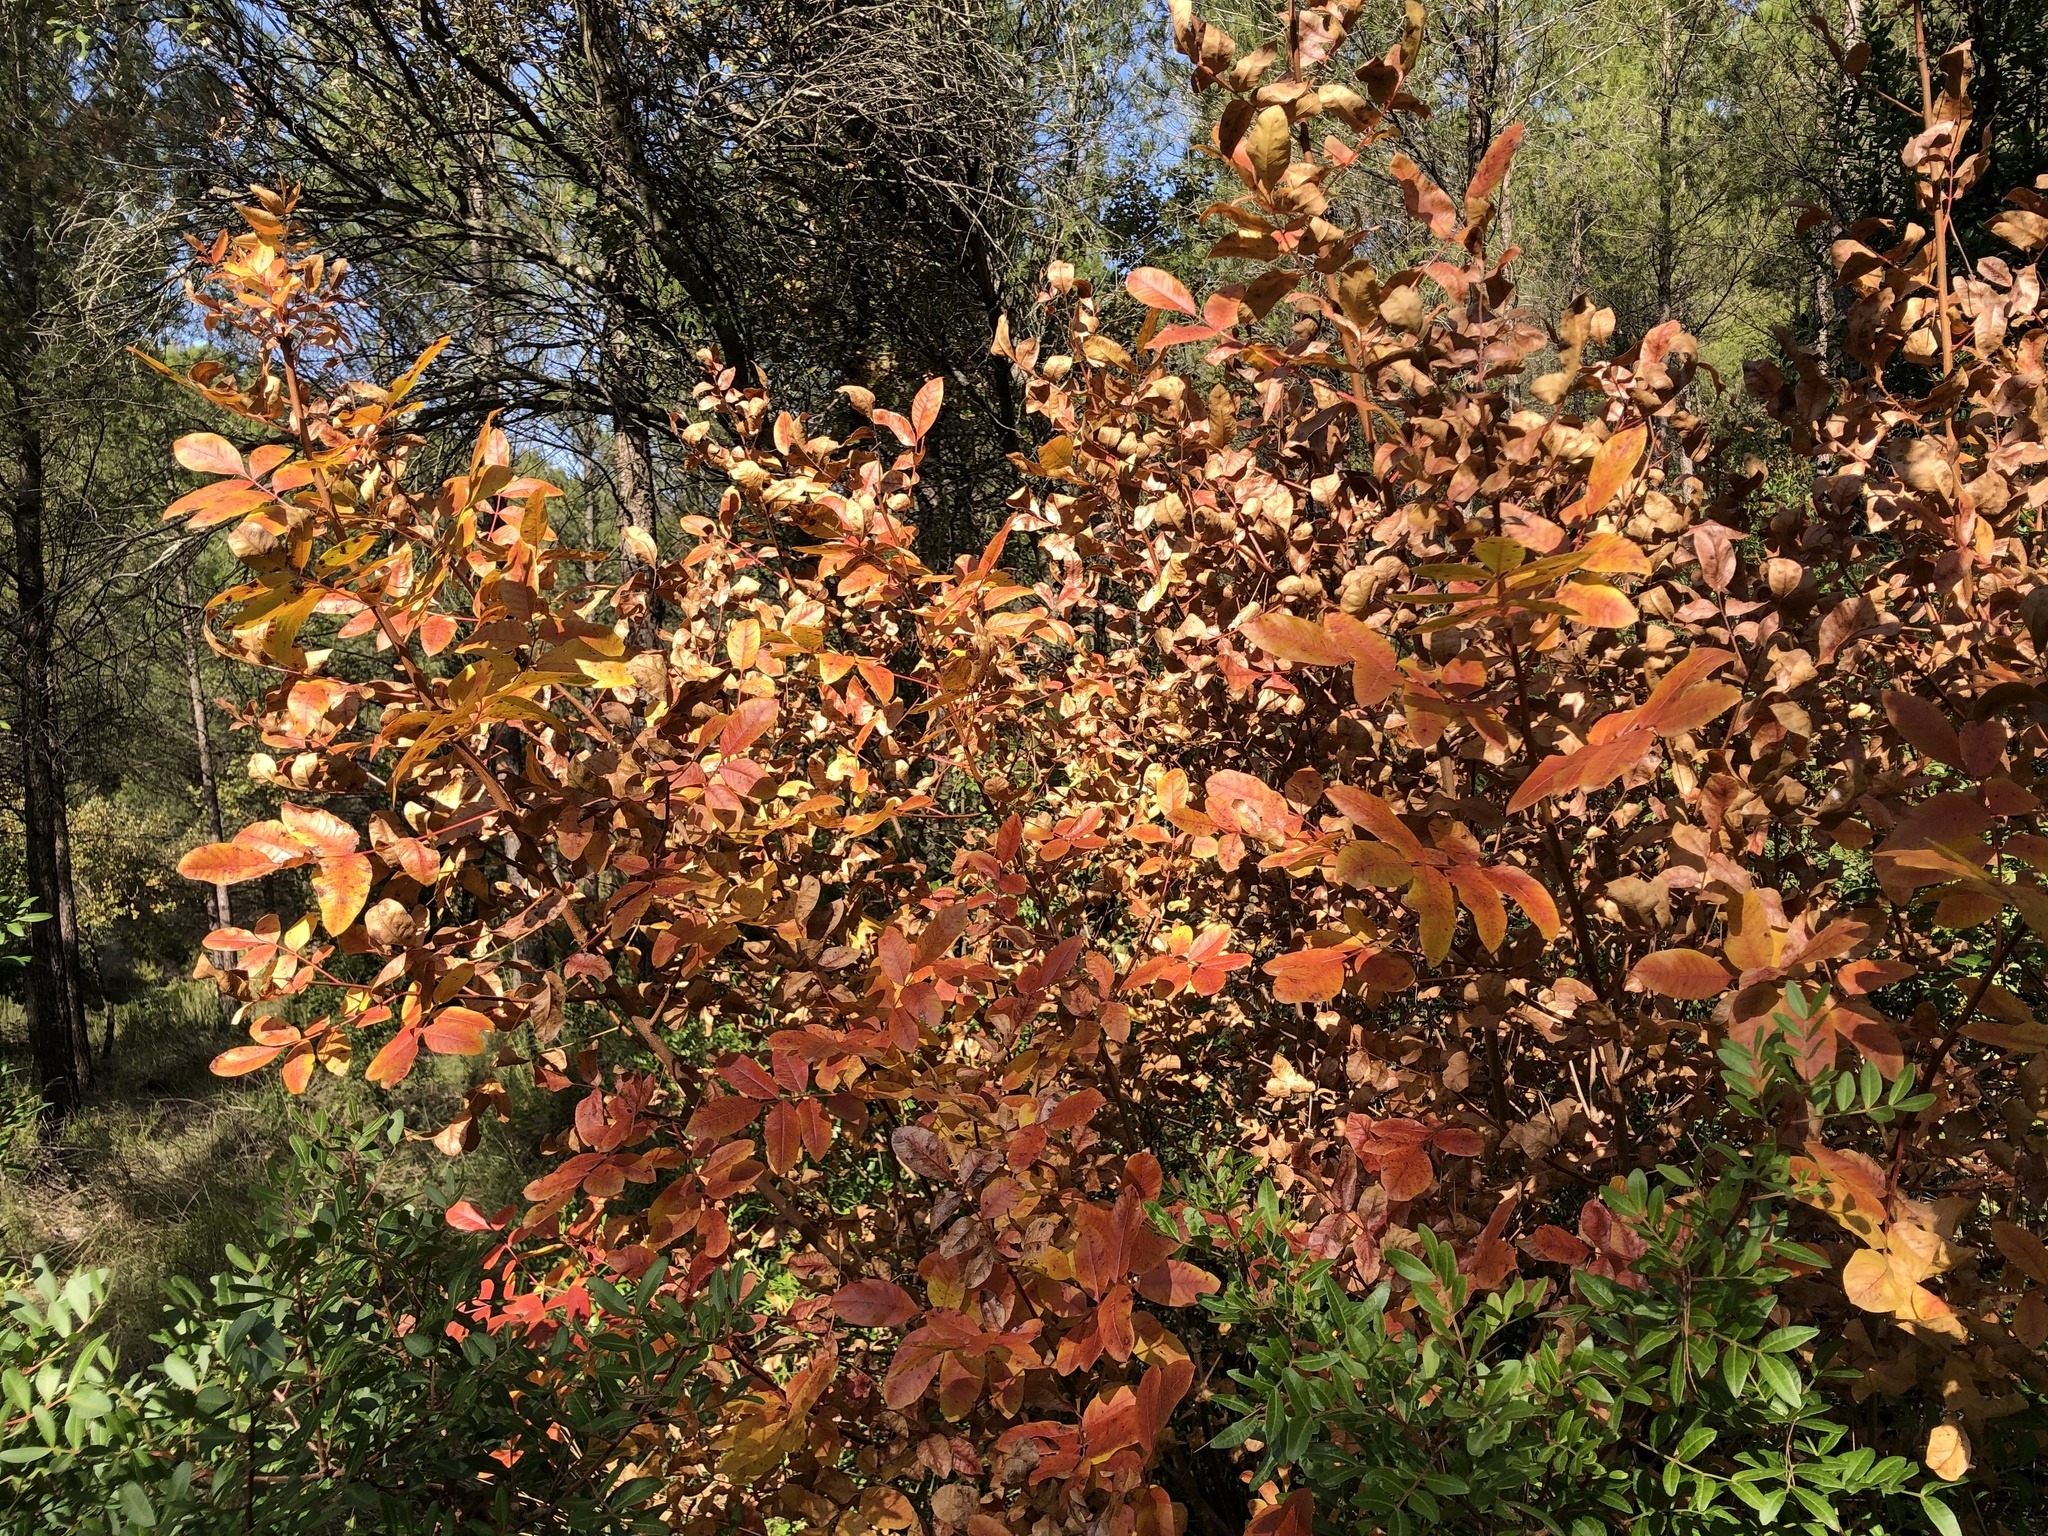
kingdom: Plantae
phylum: Tracheophyta
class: Magnoliopsida
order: Sapindales
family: Anacardiaceae
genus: Pistacia
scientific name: Pistacia terebinthus
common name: Terebinth
